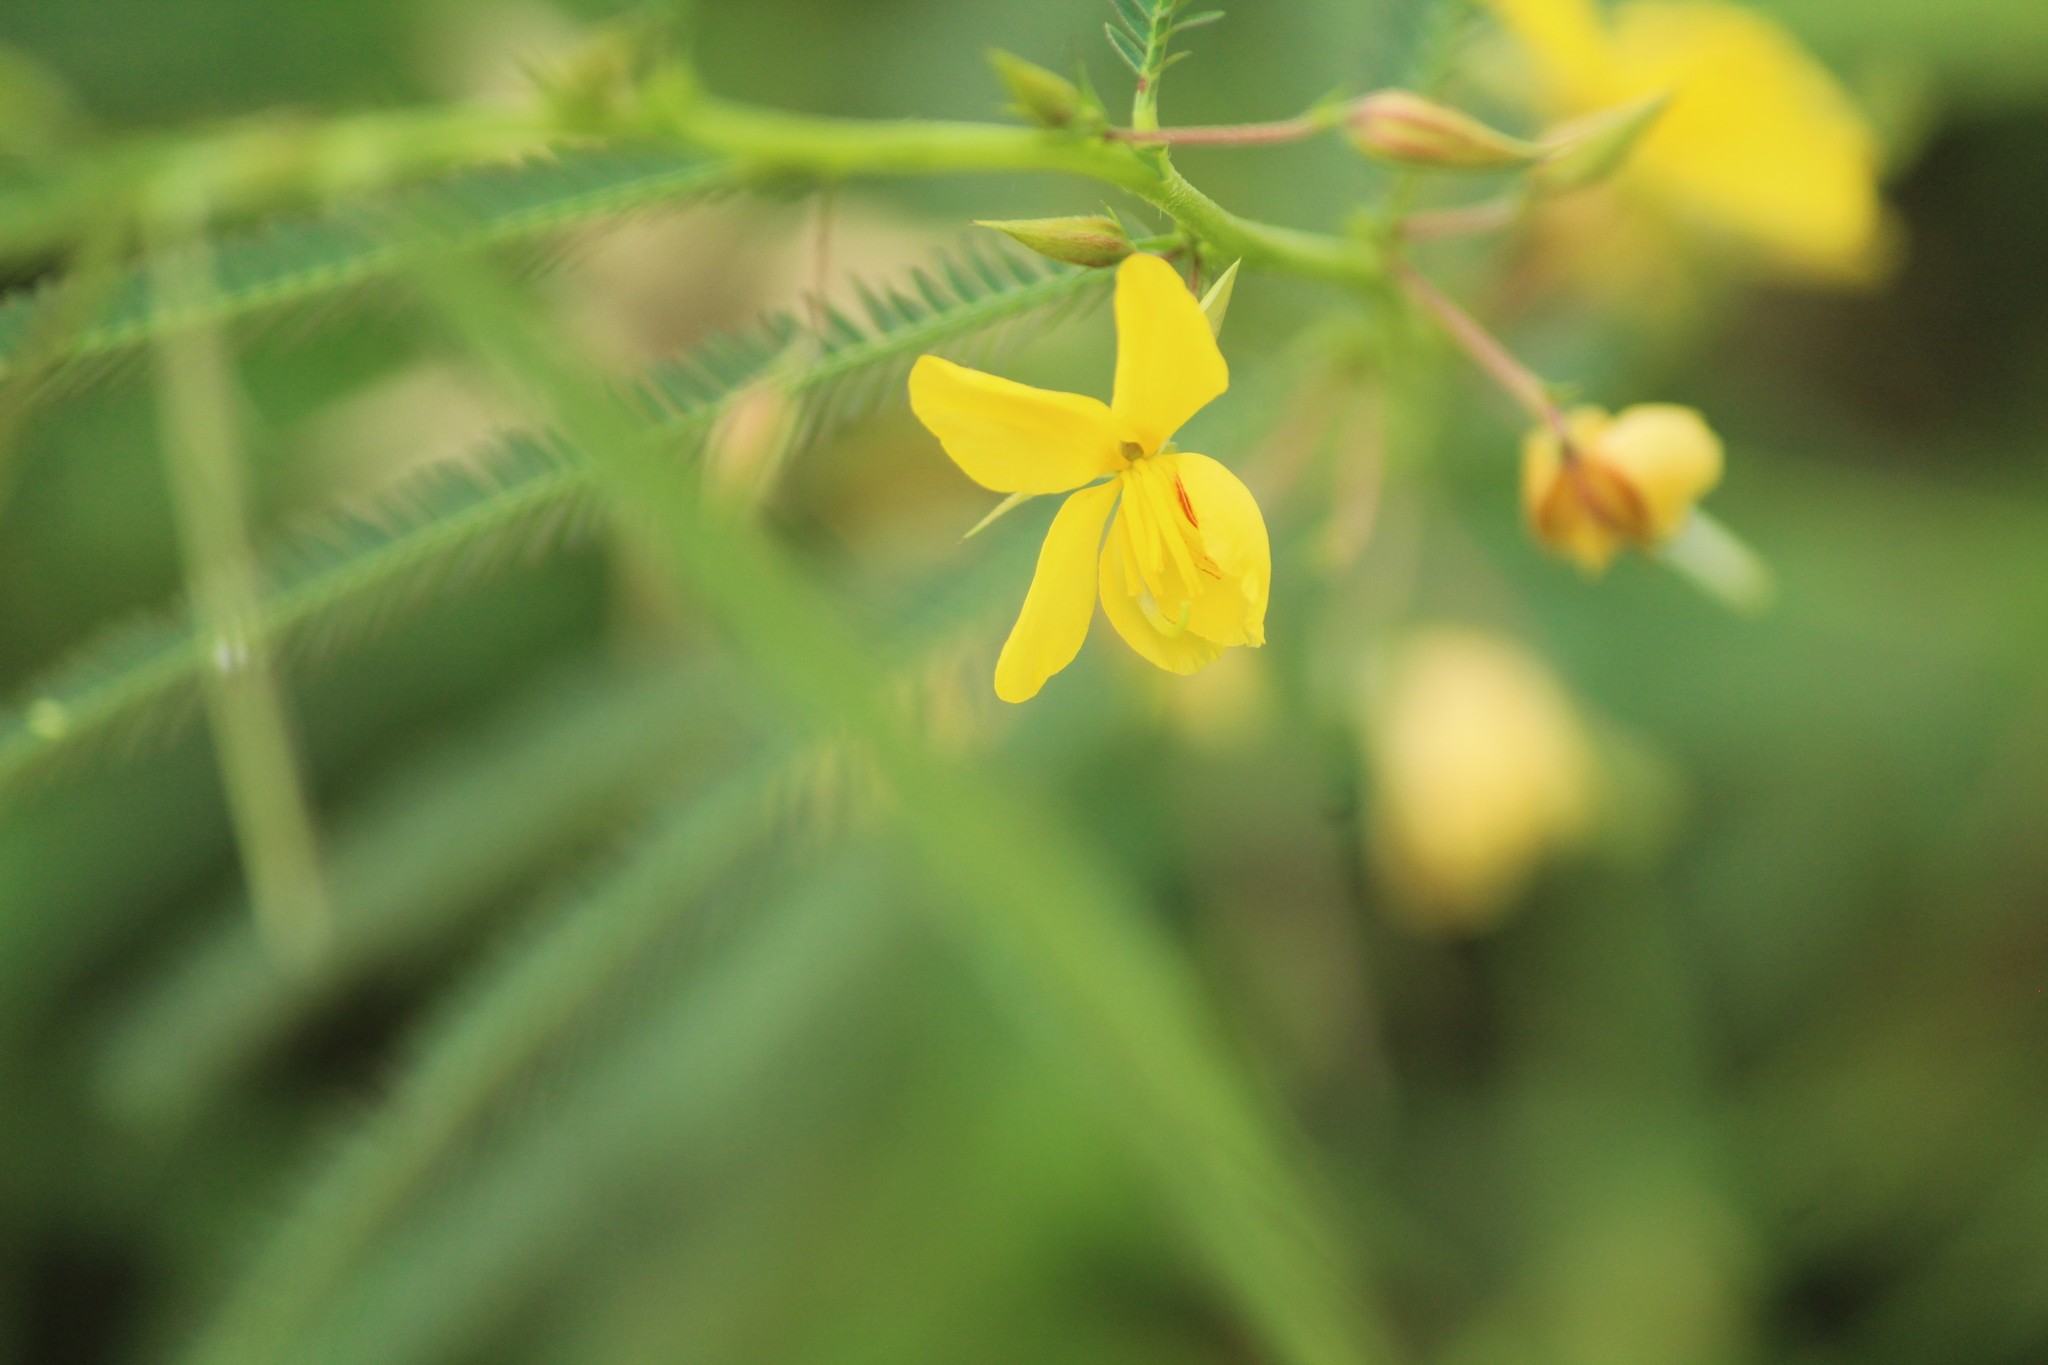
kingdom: Plantae
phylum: Tracheophyta
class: Magnoliopsida
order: Fabales
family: Fabaceae
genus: Chamaecrista
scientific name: Chamaecrista mimosoides
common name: Fish-bone cassia
